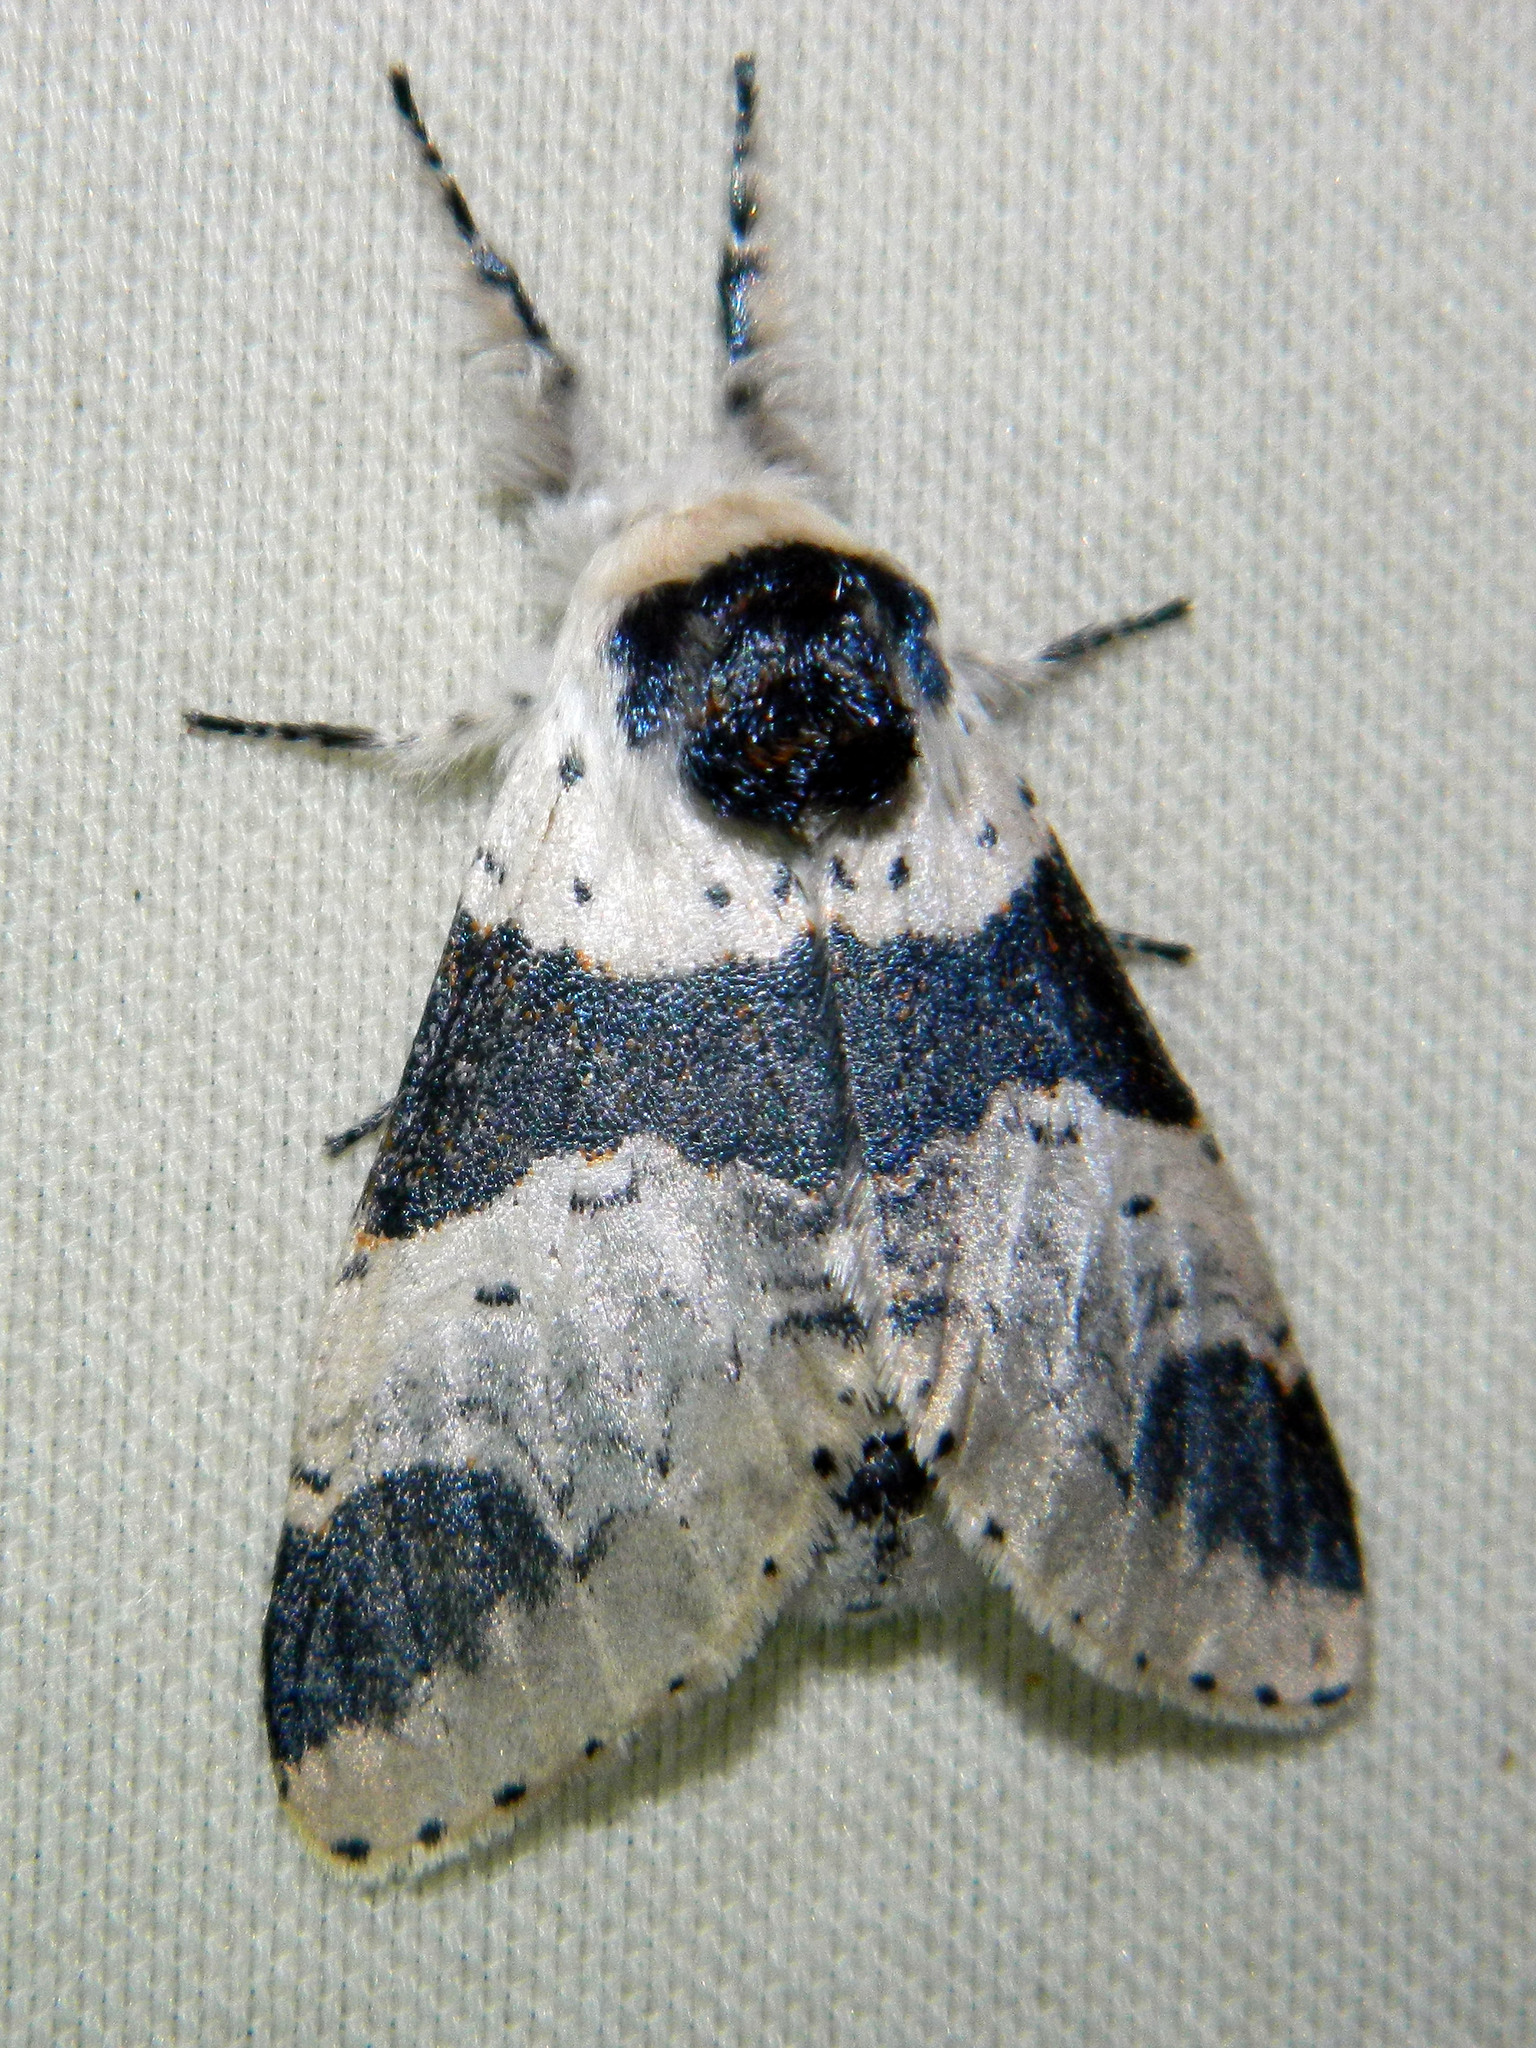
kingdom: Animalia
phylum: Arthropoda
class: Insecta
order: Lepidoptera
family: Notodontidae
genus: Furcula
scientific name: Furcula modesta
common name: Modest furcula moth
